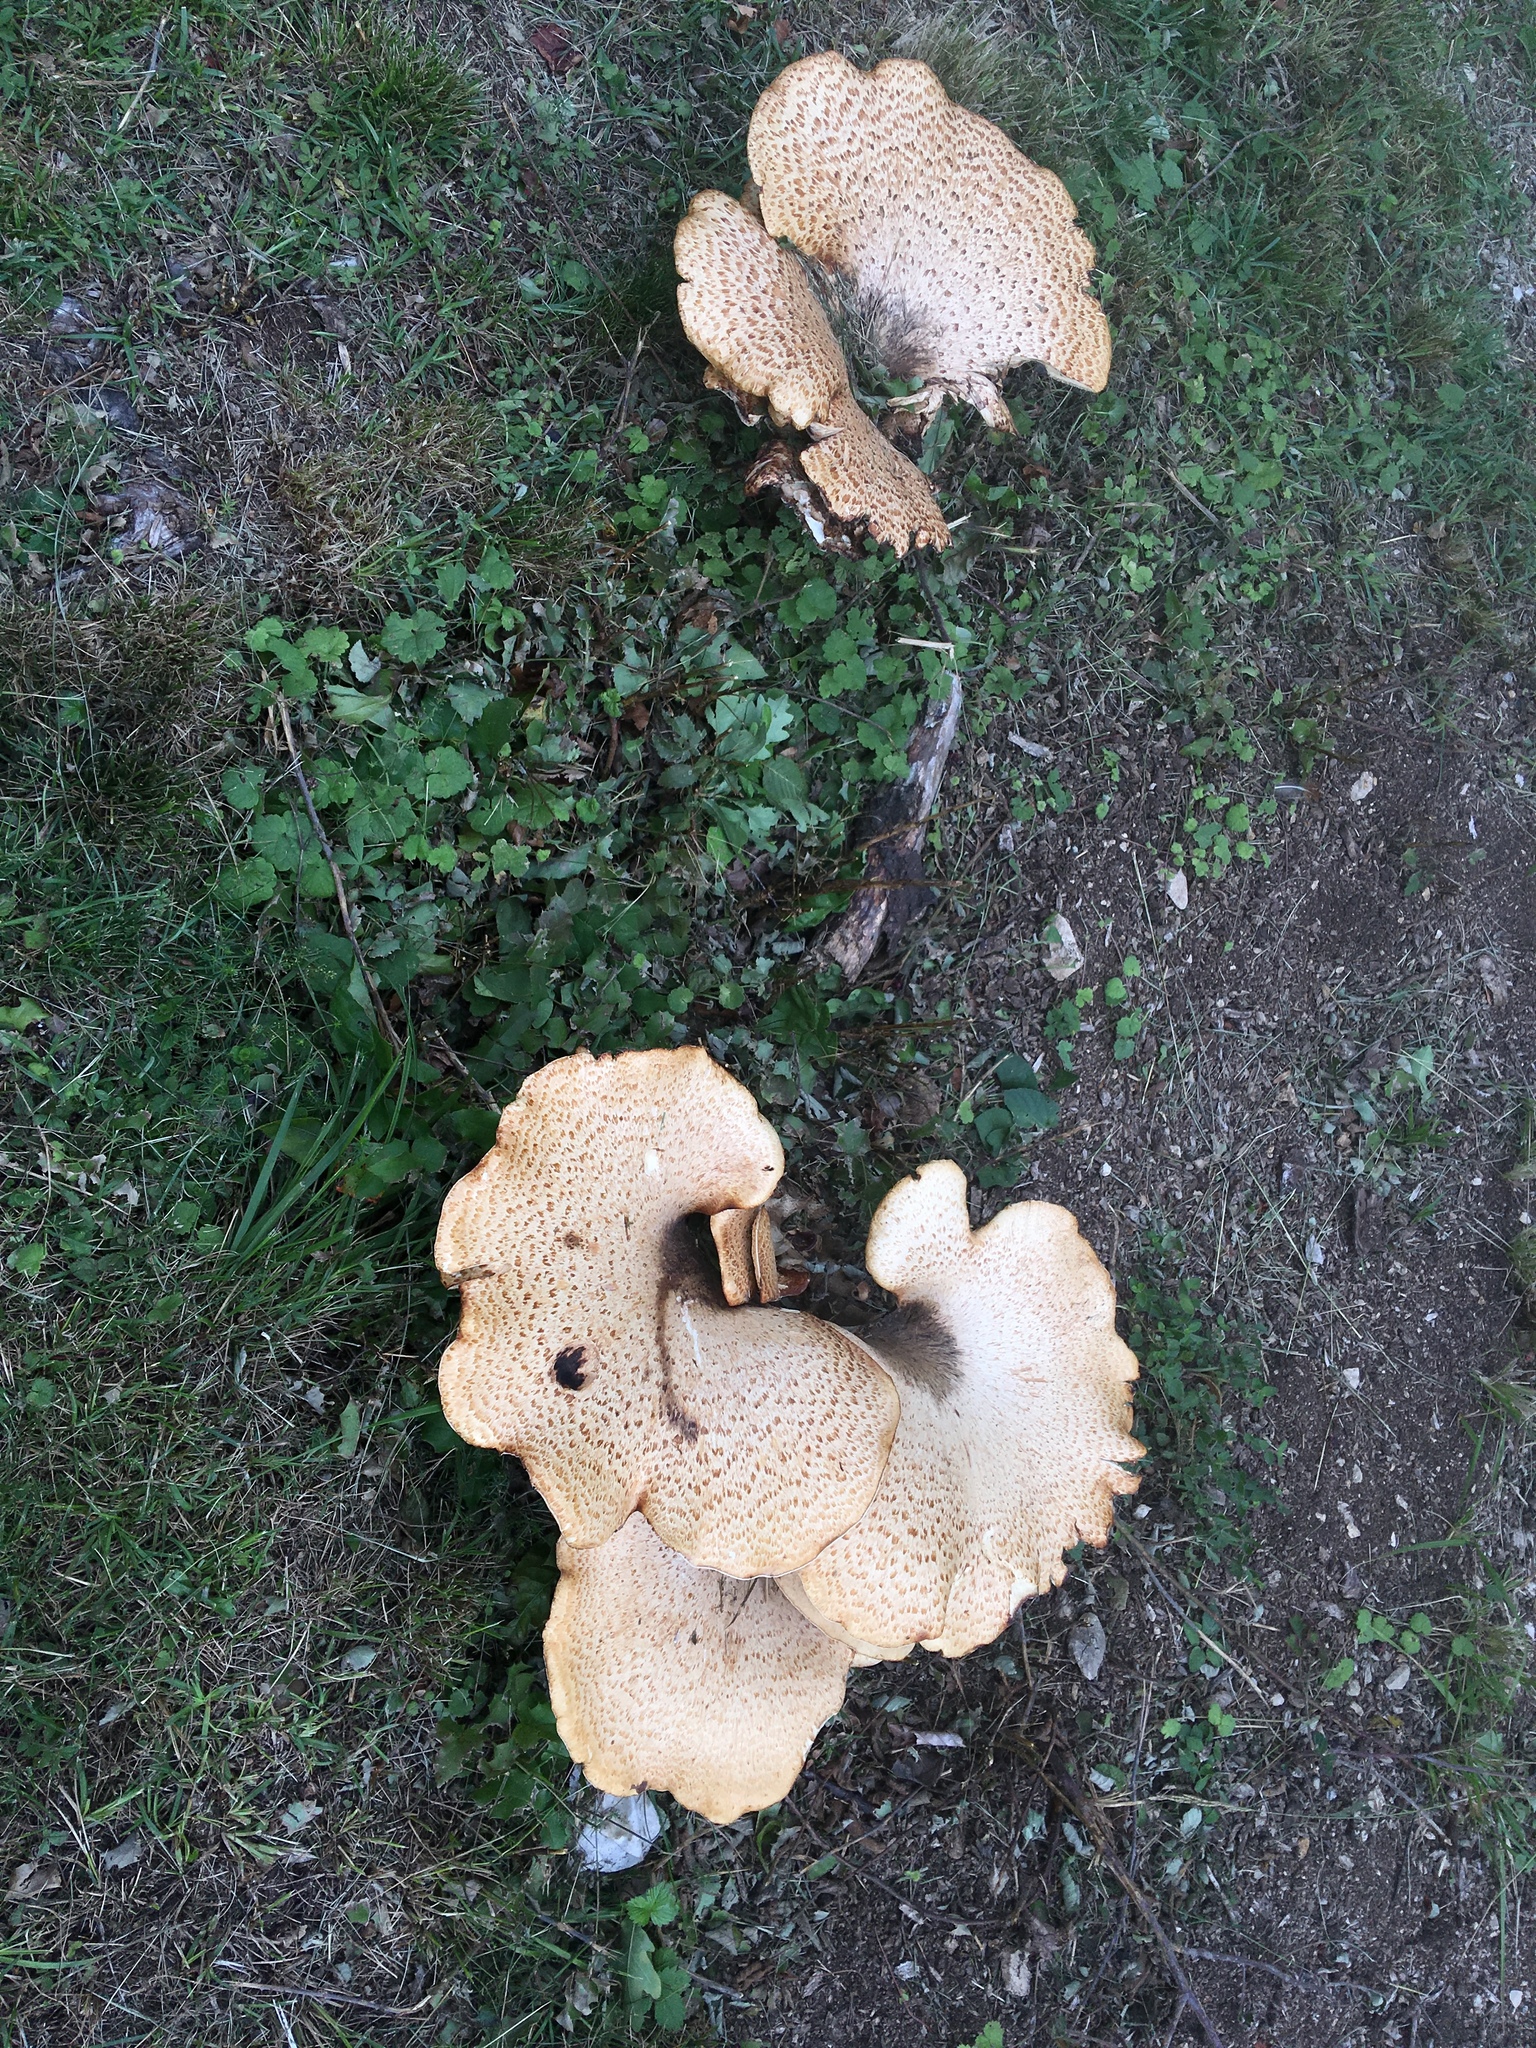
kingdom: Fungi
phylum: Basidiomycota
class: Agaricomycetes
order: Polyporales
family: Polyporaceae
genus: Cerioporus
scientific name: Cerioporus squamosus
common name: Dryad's saddle
